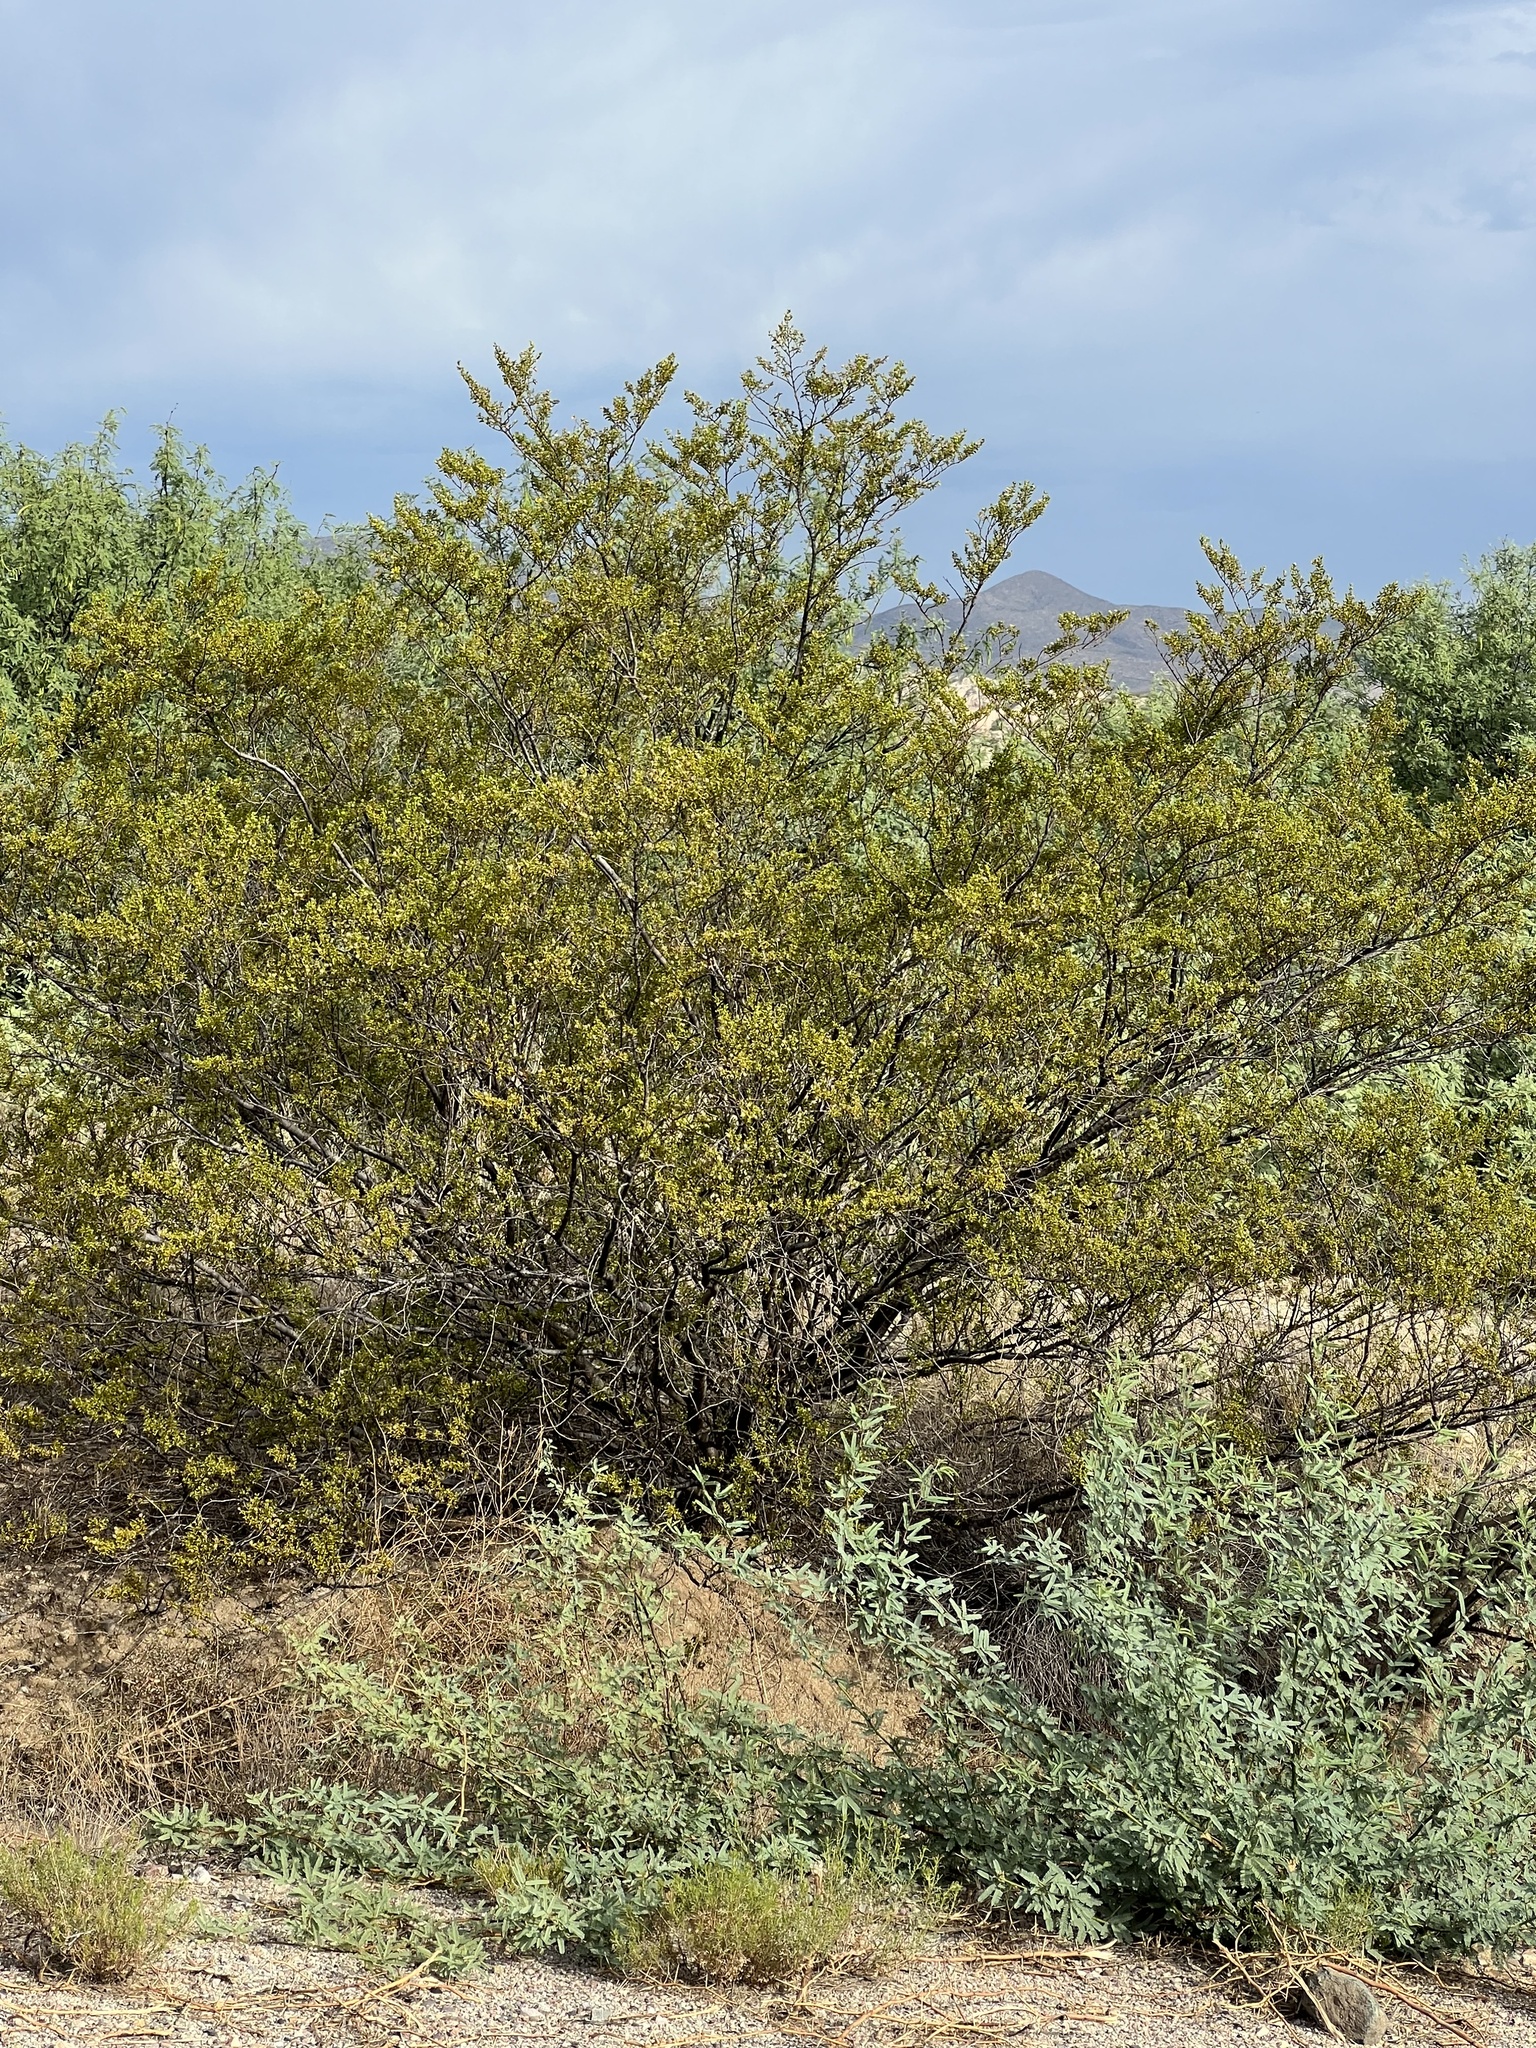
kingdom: Plantae
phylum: Tracheophyta
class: Magnoliopsida
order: Zygophyllales
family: Zygophyllaceae
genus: Larrea
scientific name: Larrea tridentata
